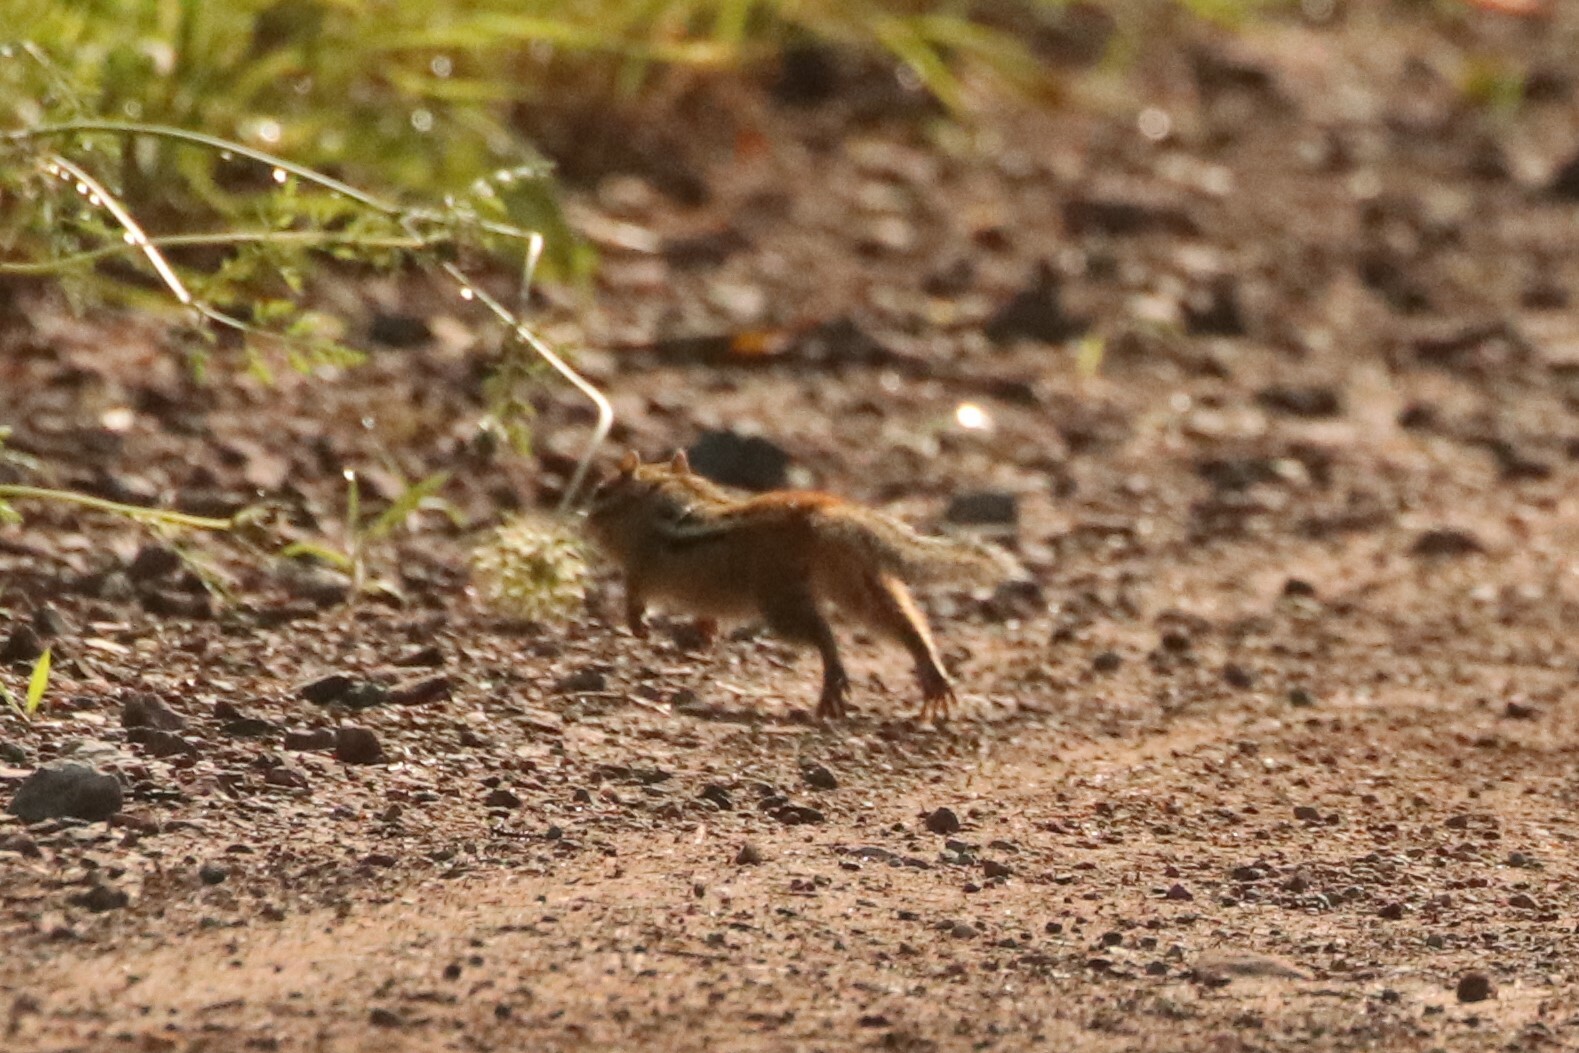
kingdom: Animalia
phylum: Chordata
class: Mammalia
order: Rodentia
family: Sciuridae
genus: Tamias
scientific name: Tamias striatus
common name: Eastern chipmunk
